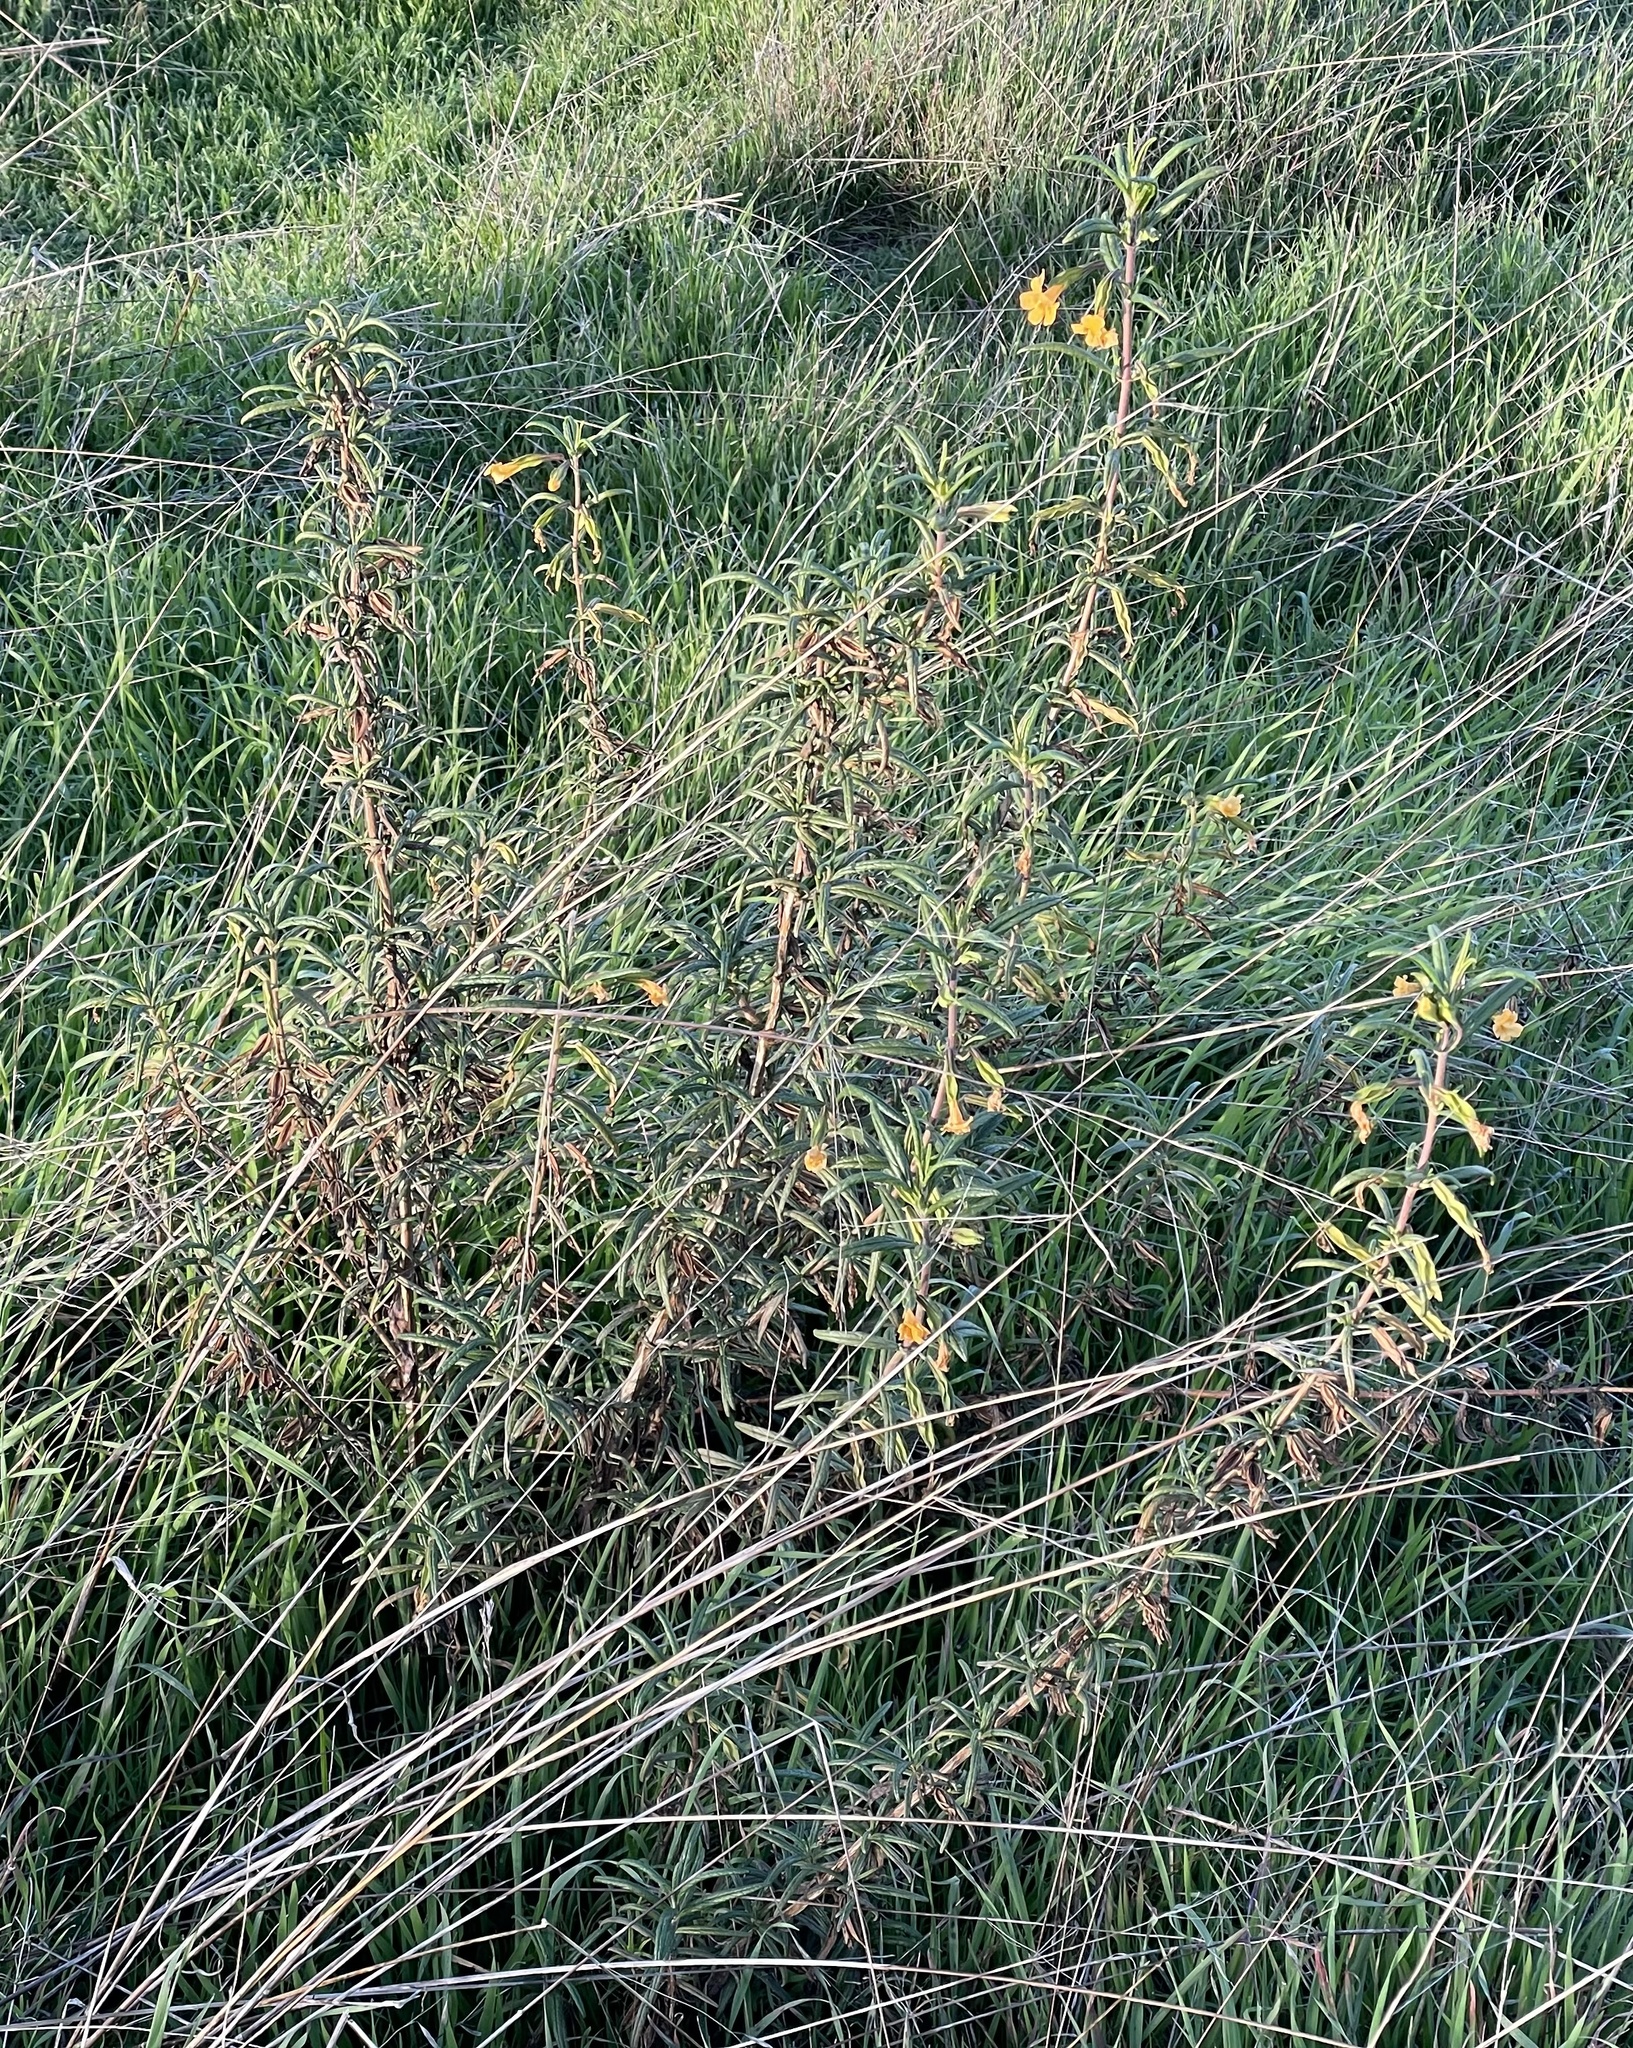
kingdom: Plantae
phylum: Tracheophyta
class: Magnoliopsida
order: Lamiales
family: Phrymaceae
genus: Diplacus
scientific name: Diplacus aurantiacus
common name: Bush monkey-flower
